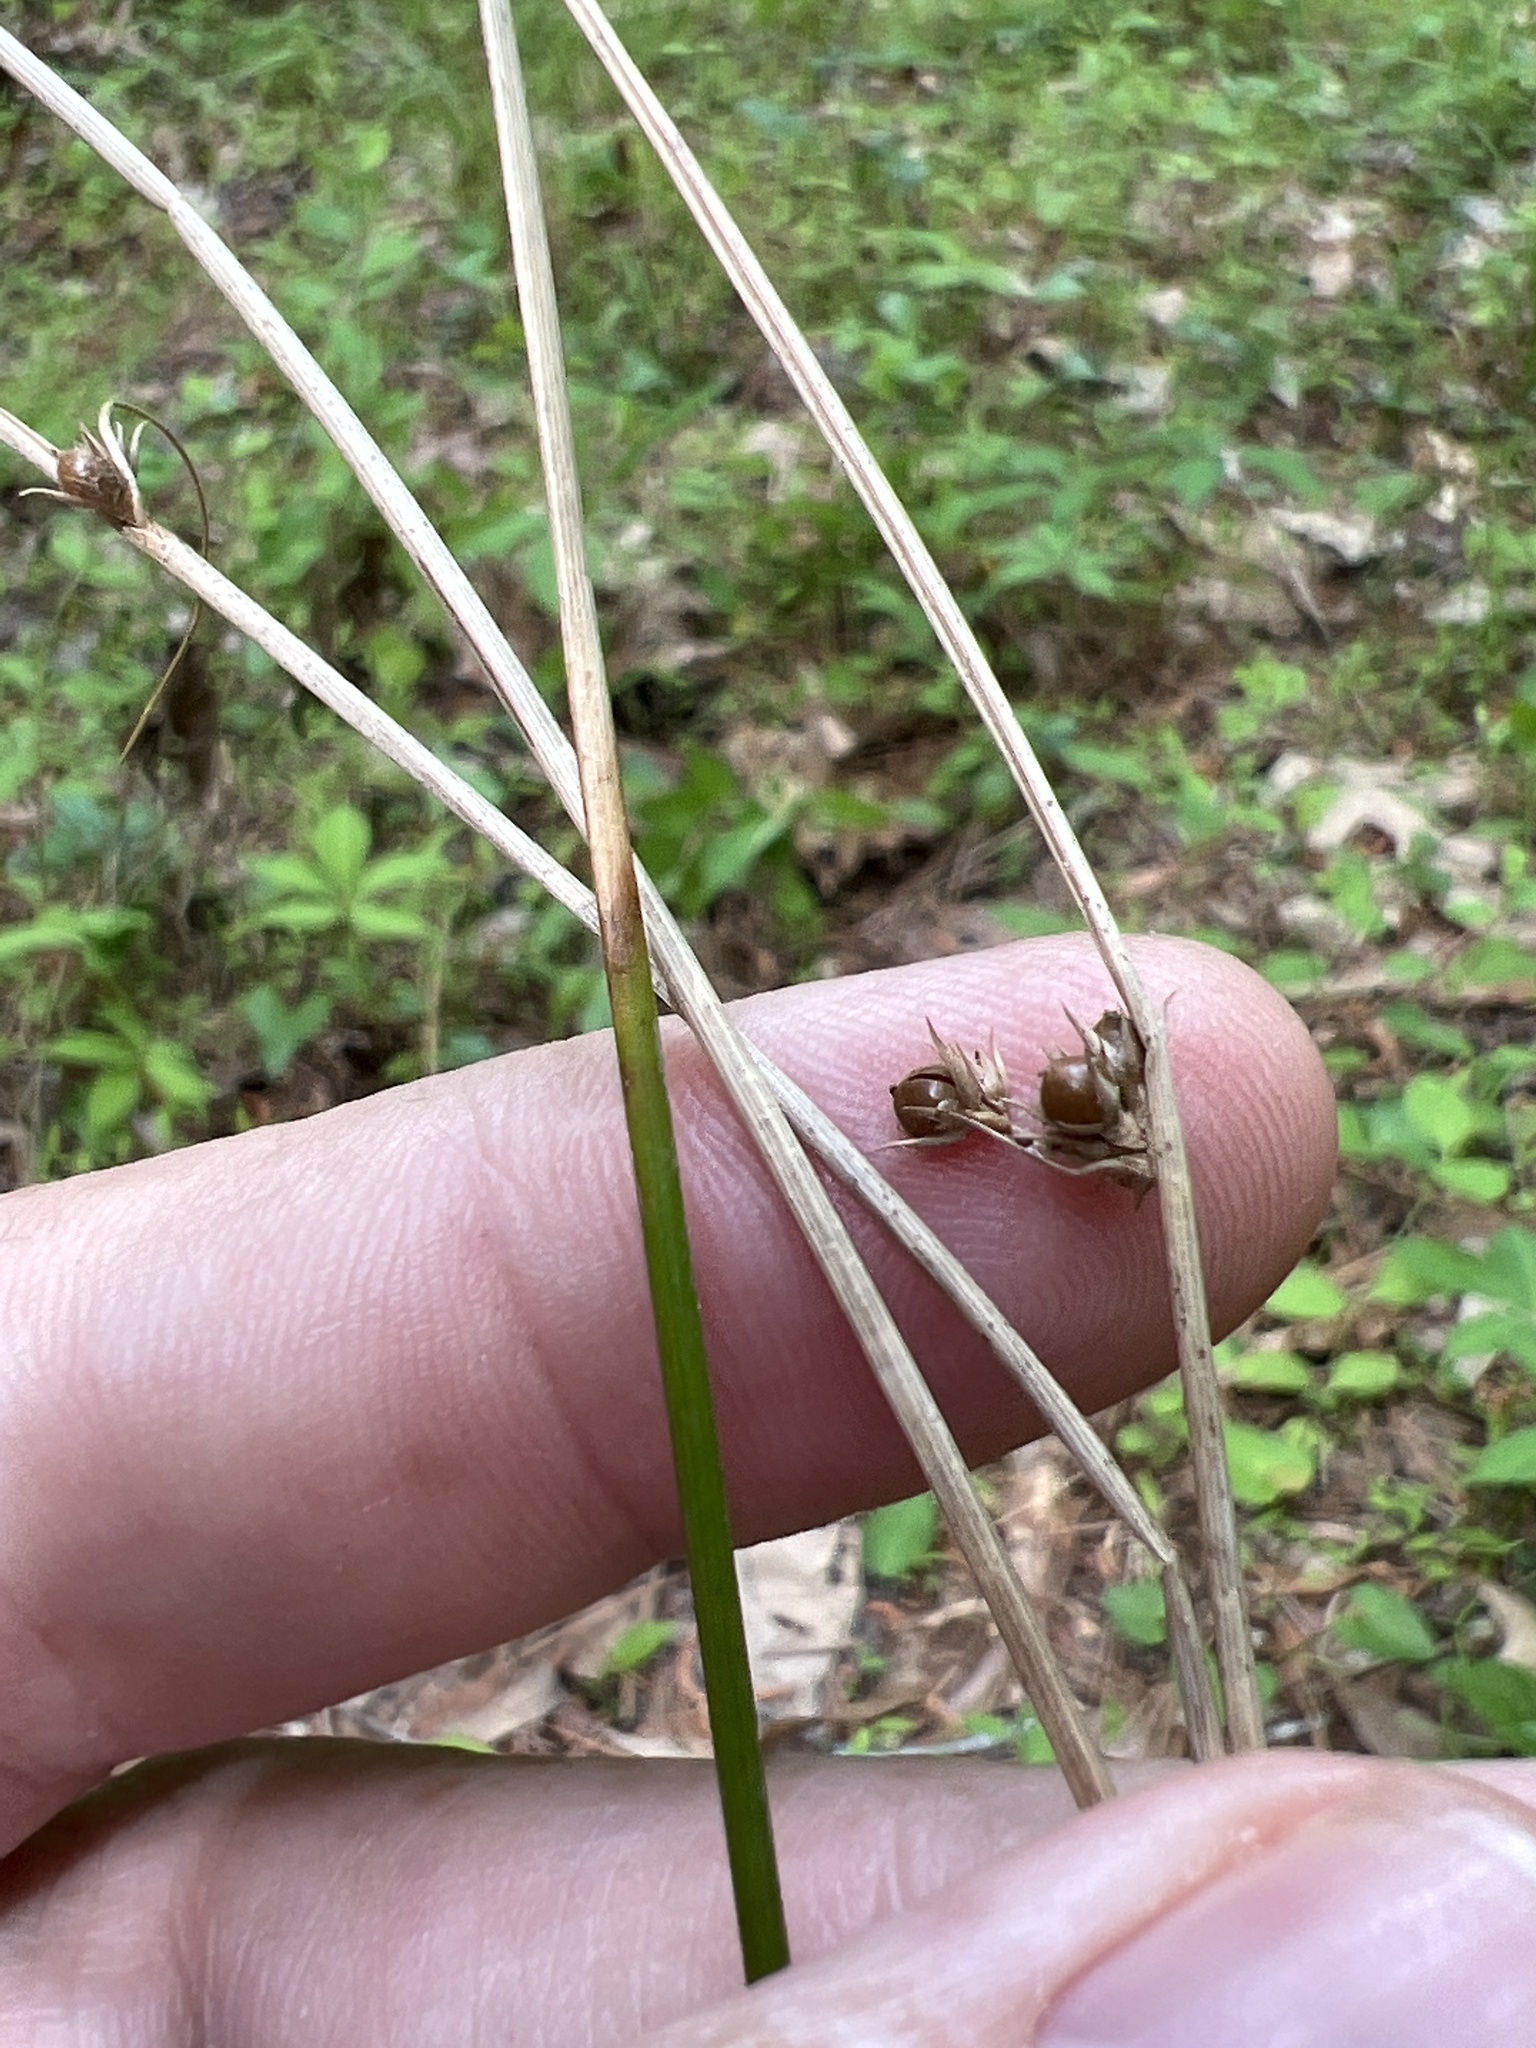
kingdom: Plantae
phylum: Tracheophyta
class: Liliopsida
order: Poales
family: Juncaceae
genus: Juncus
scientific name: Juncus coriaceus
